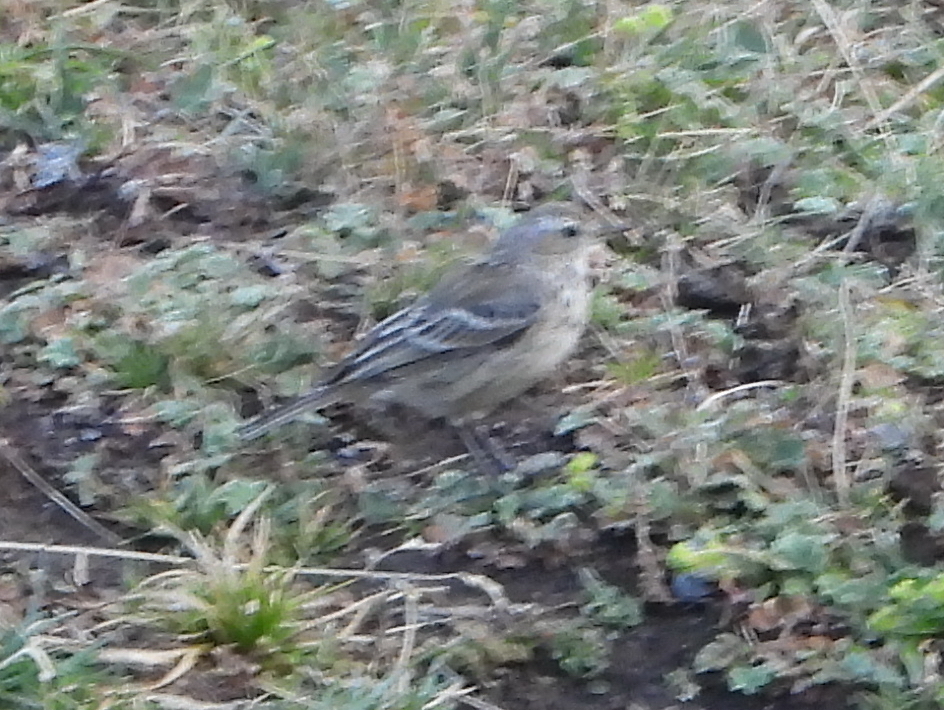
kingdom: Animalia
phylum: Chordata
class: Aves
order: Passeriformes
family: Motacillidae
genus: Anthus
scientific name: Anthus spinoletta
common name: Water pipit
